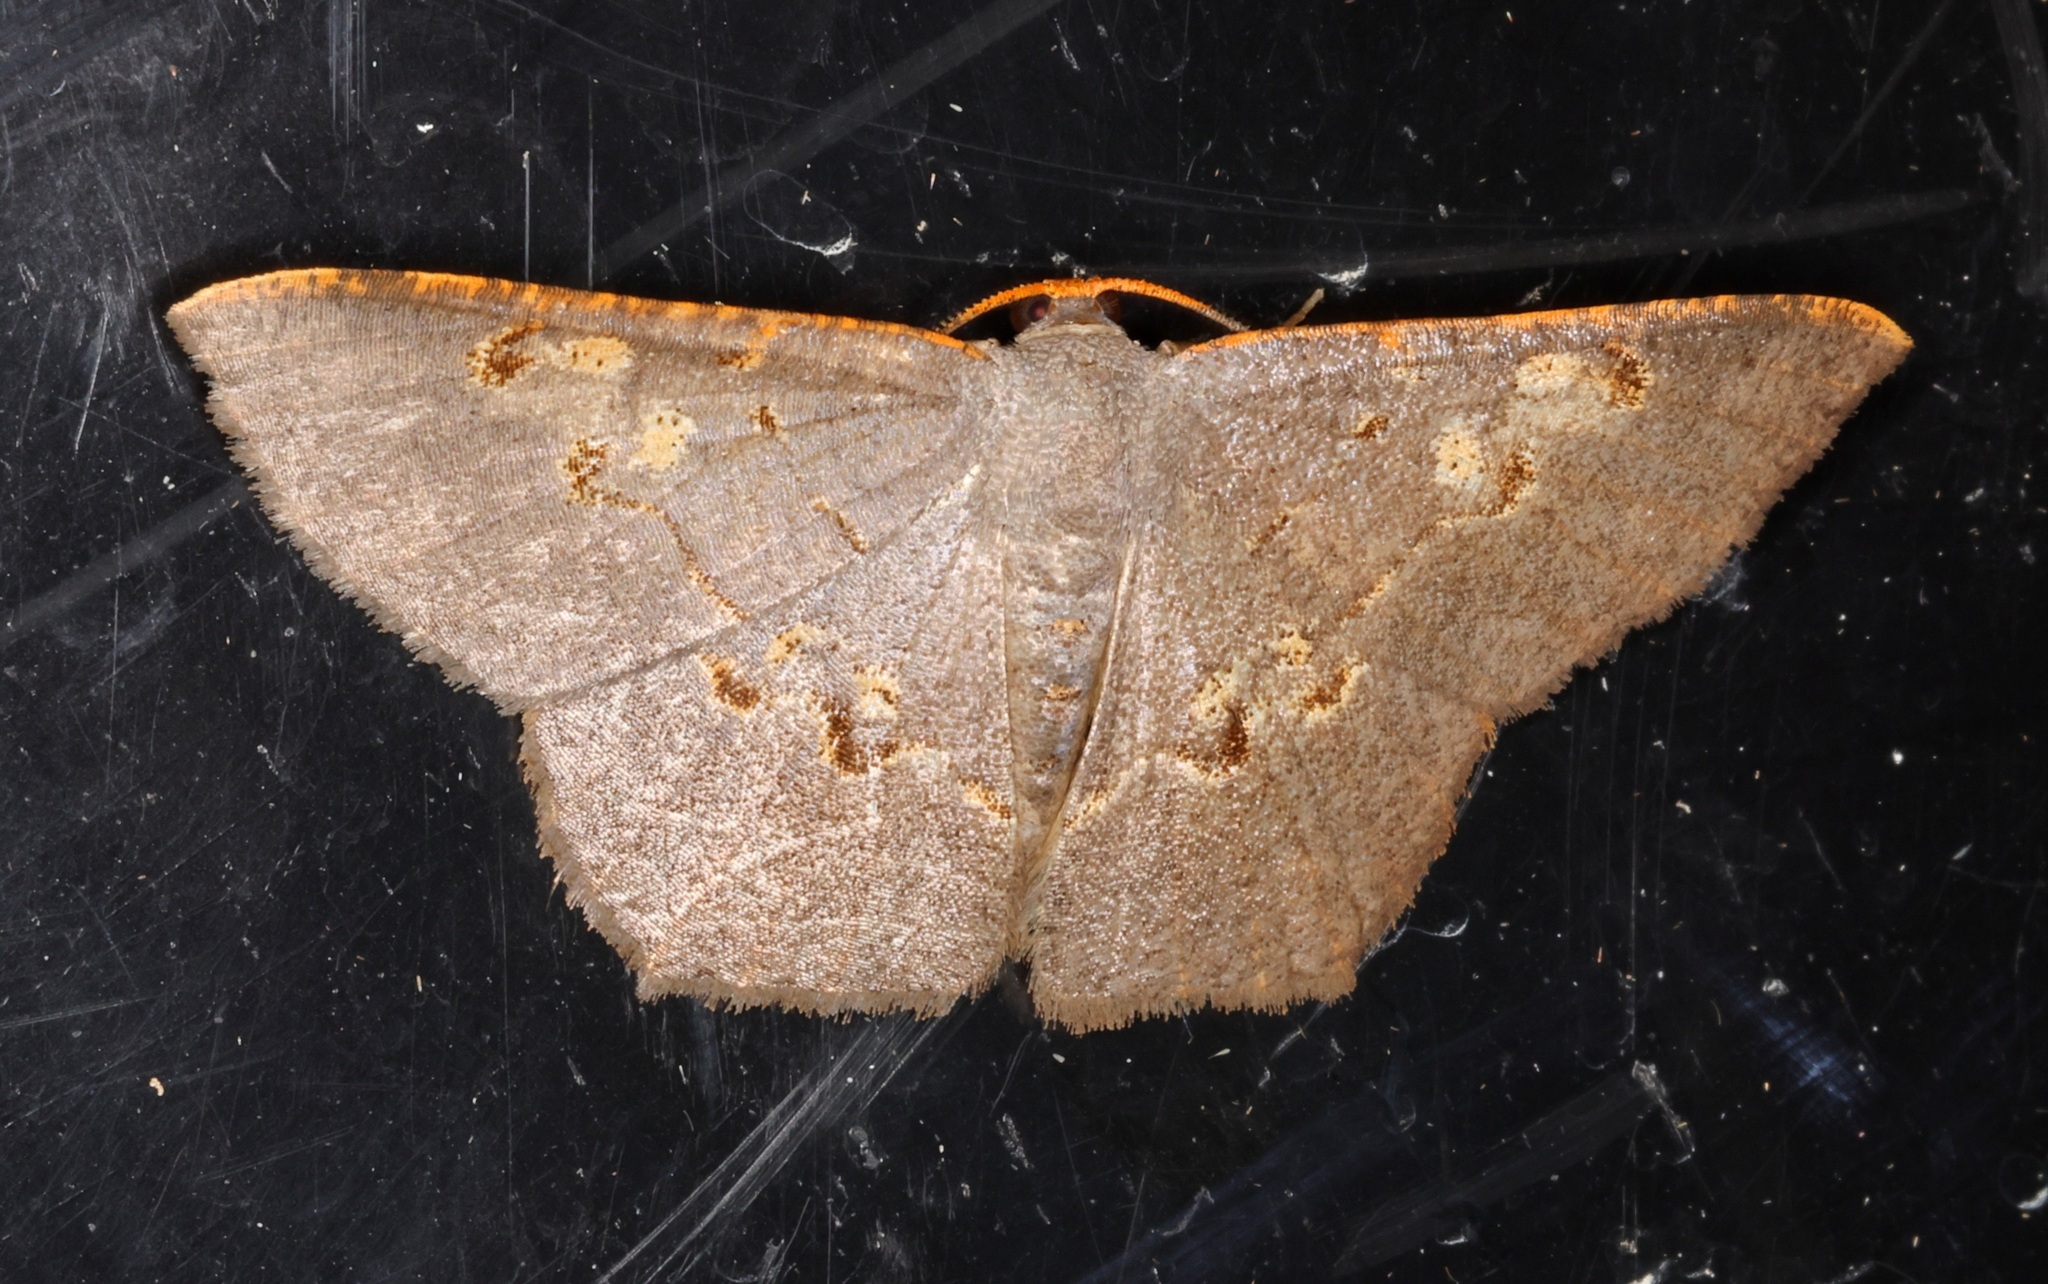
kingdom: Animalia
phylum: Arthropoda
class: Insecta
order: Lepidoptera
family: Geometridae
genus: Serratophyga
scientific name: Serratophyga xanthospilaria
